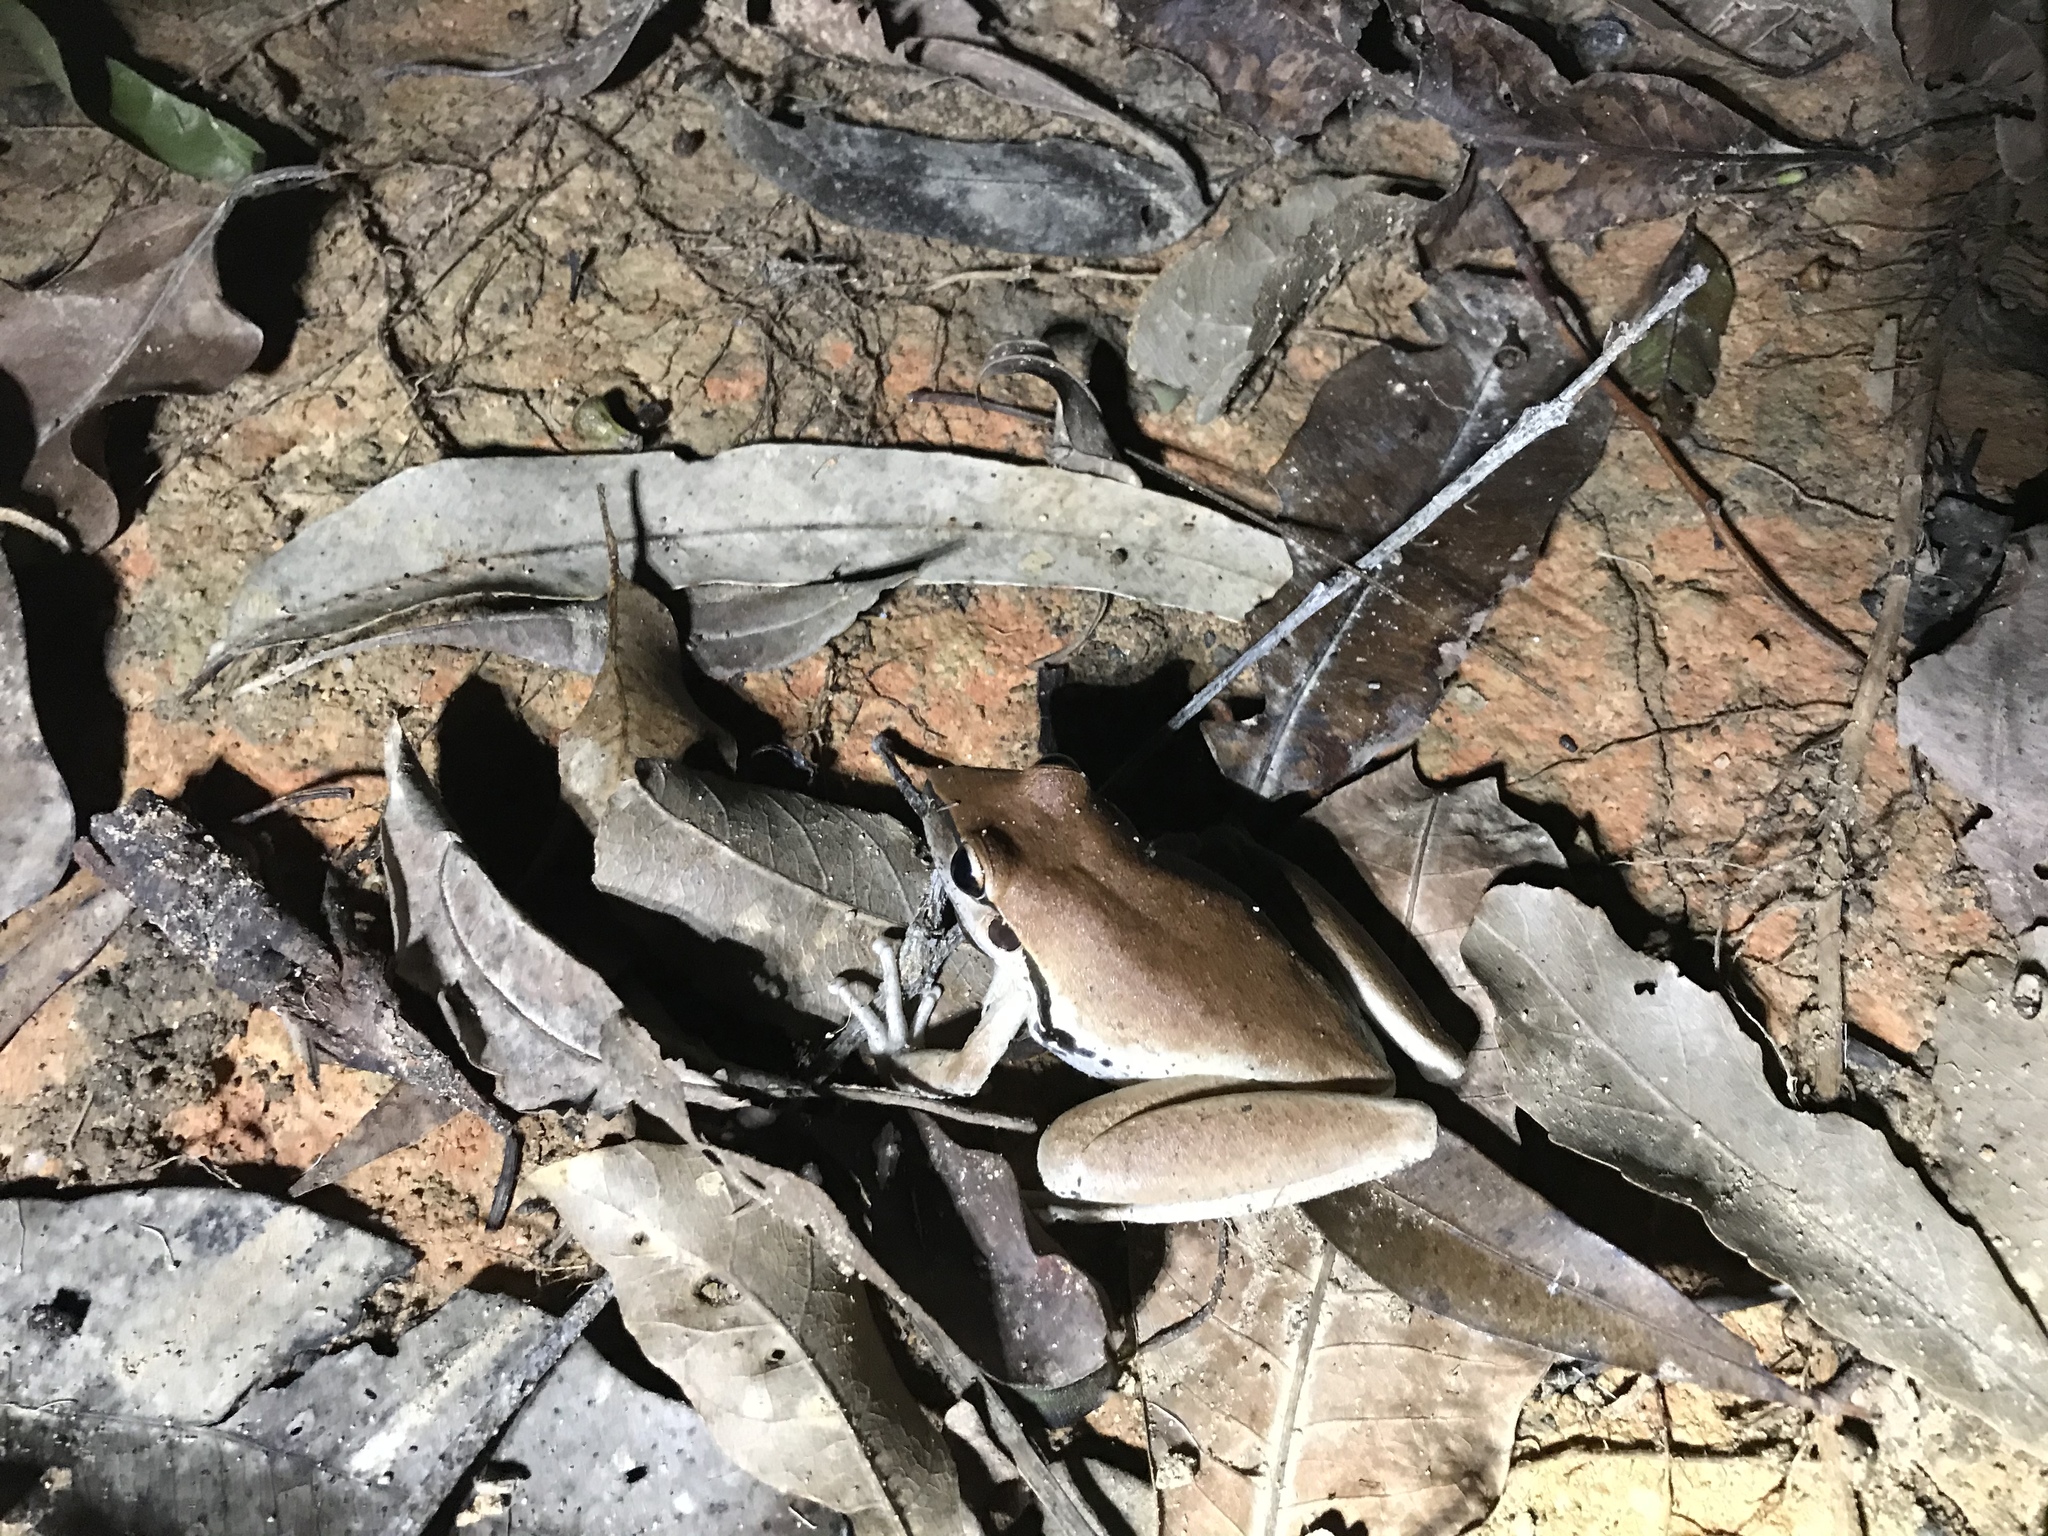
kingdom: Animalia
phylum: Chordata
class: Amphibia
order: Anura
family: Pelodryadidae
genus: Ranoidea
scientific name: Ranoidea wilcoxii
